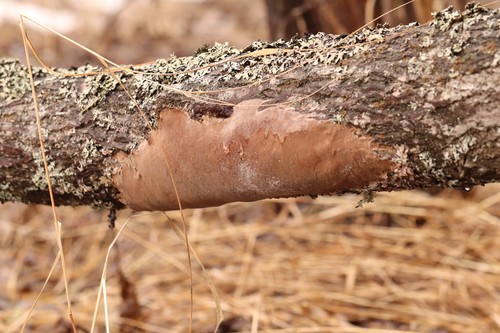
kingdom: Fungi
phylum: Basidiomycota
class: Agaricomycetes
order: Hymenochaetales
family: Hymenochaetaceae
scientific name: Hymenochaetaceae
